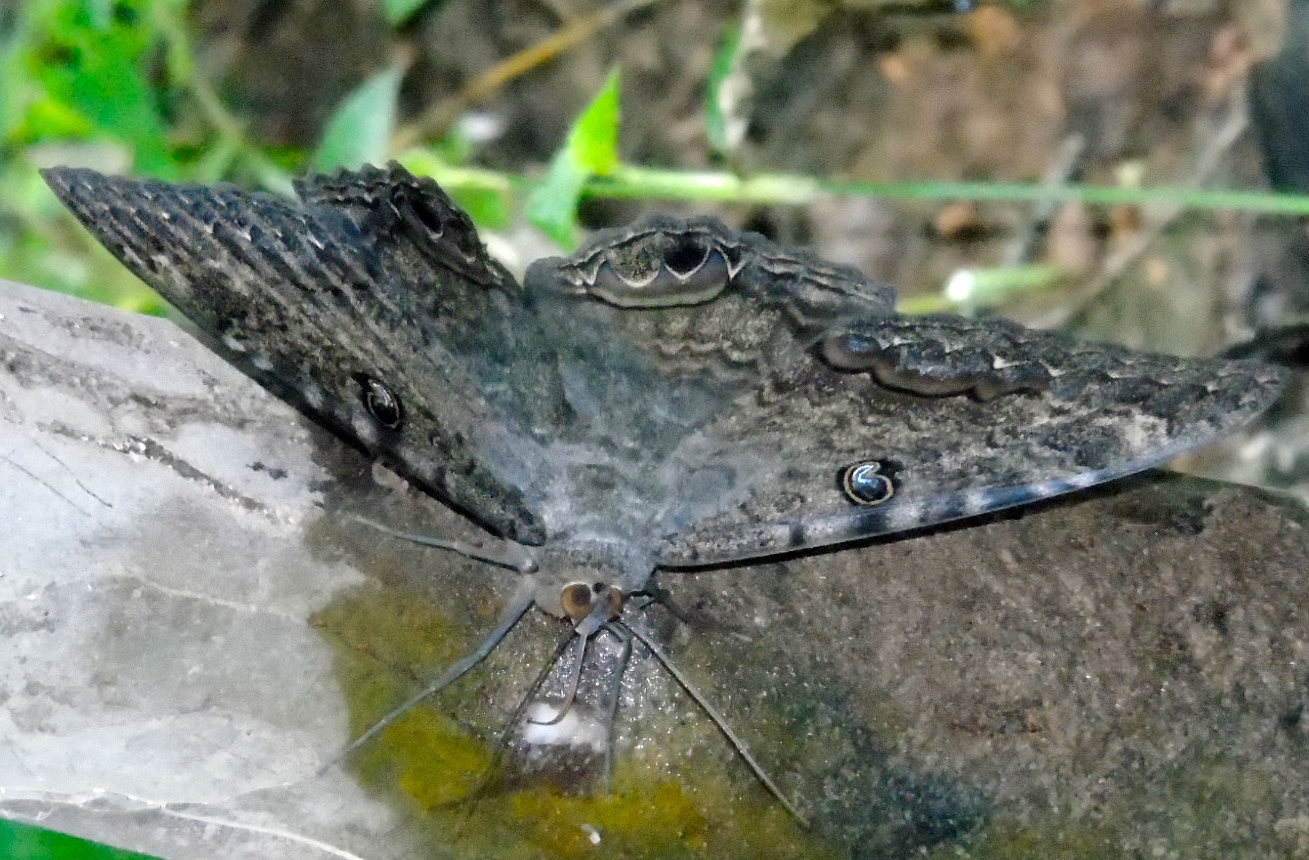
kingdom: Animalia
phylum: Arthropoda
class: Insecta
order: Lepidoptera
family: Erebidae
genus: Ascalapha
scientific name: Ascalapha odorata
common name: Black witch
